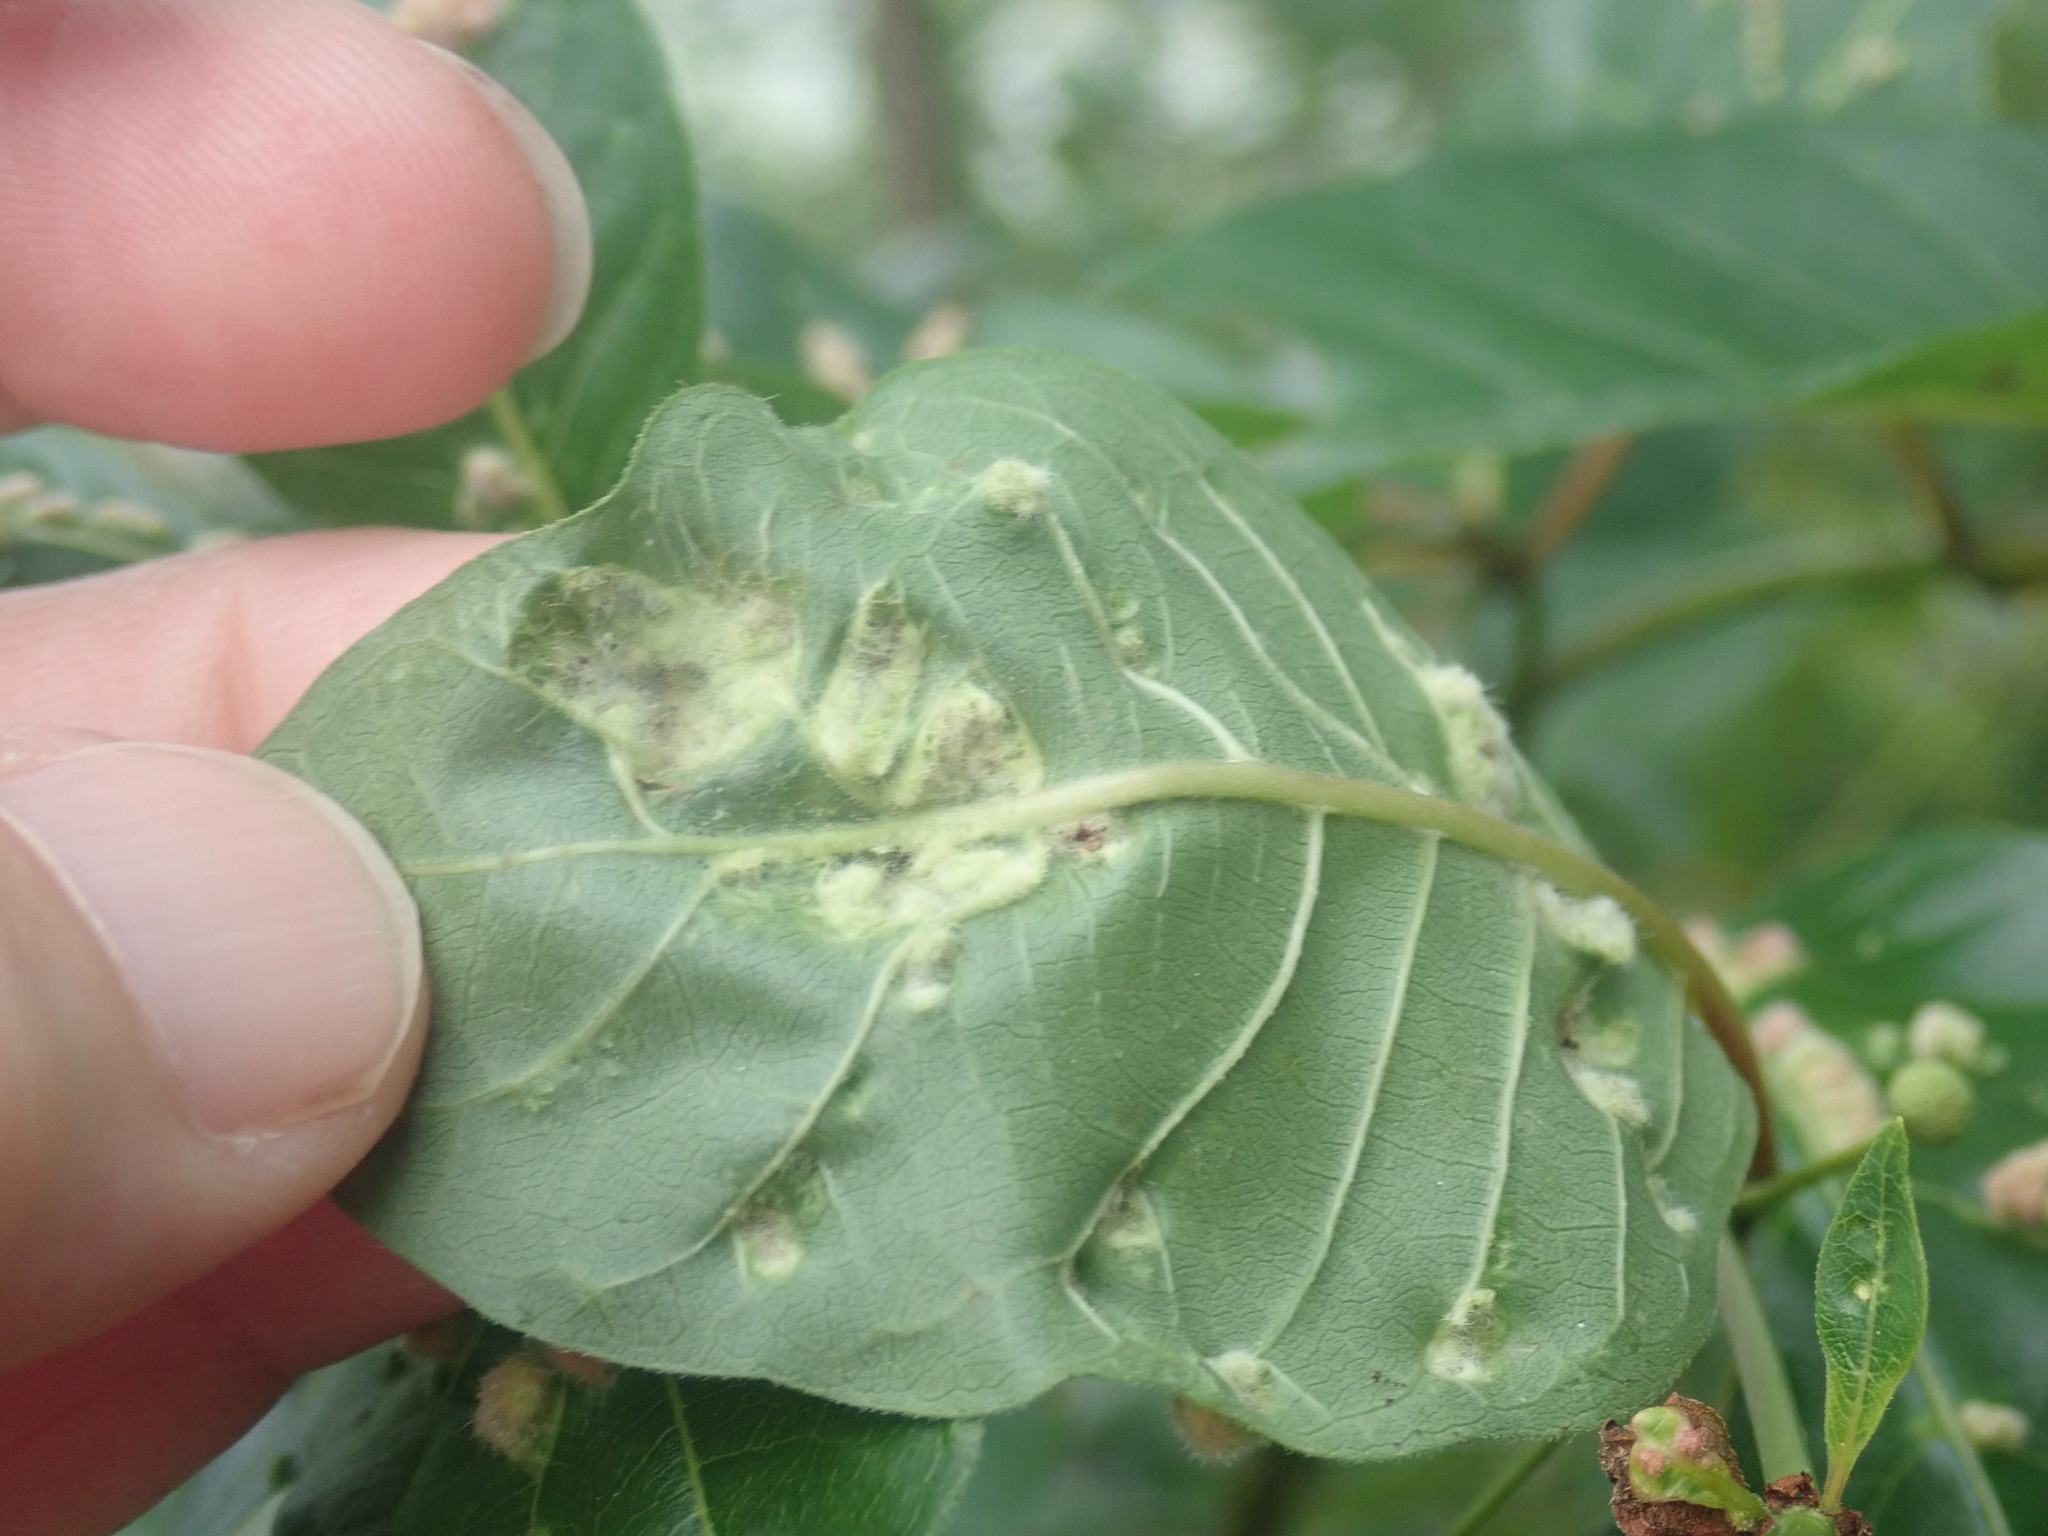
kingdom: Animalia
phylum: Arthropoda
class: Arachnida
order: Trombidiformes
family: Eriophyidae
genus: Aceria
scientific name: Aceria
